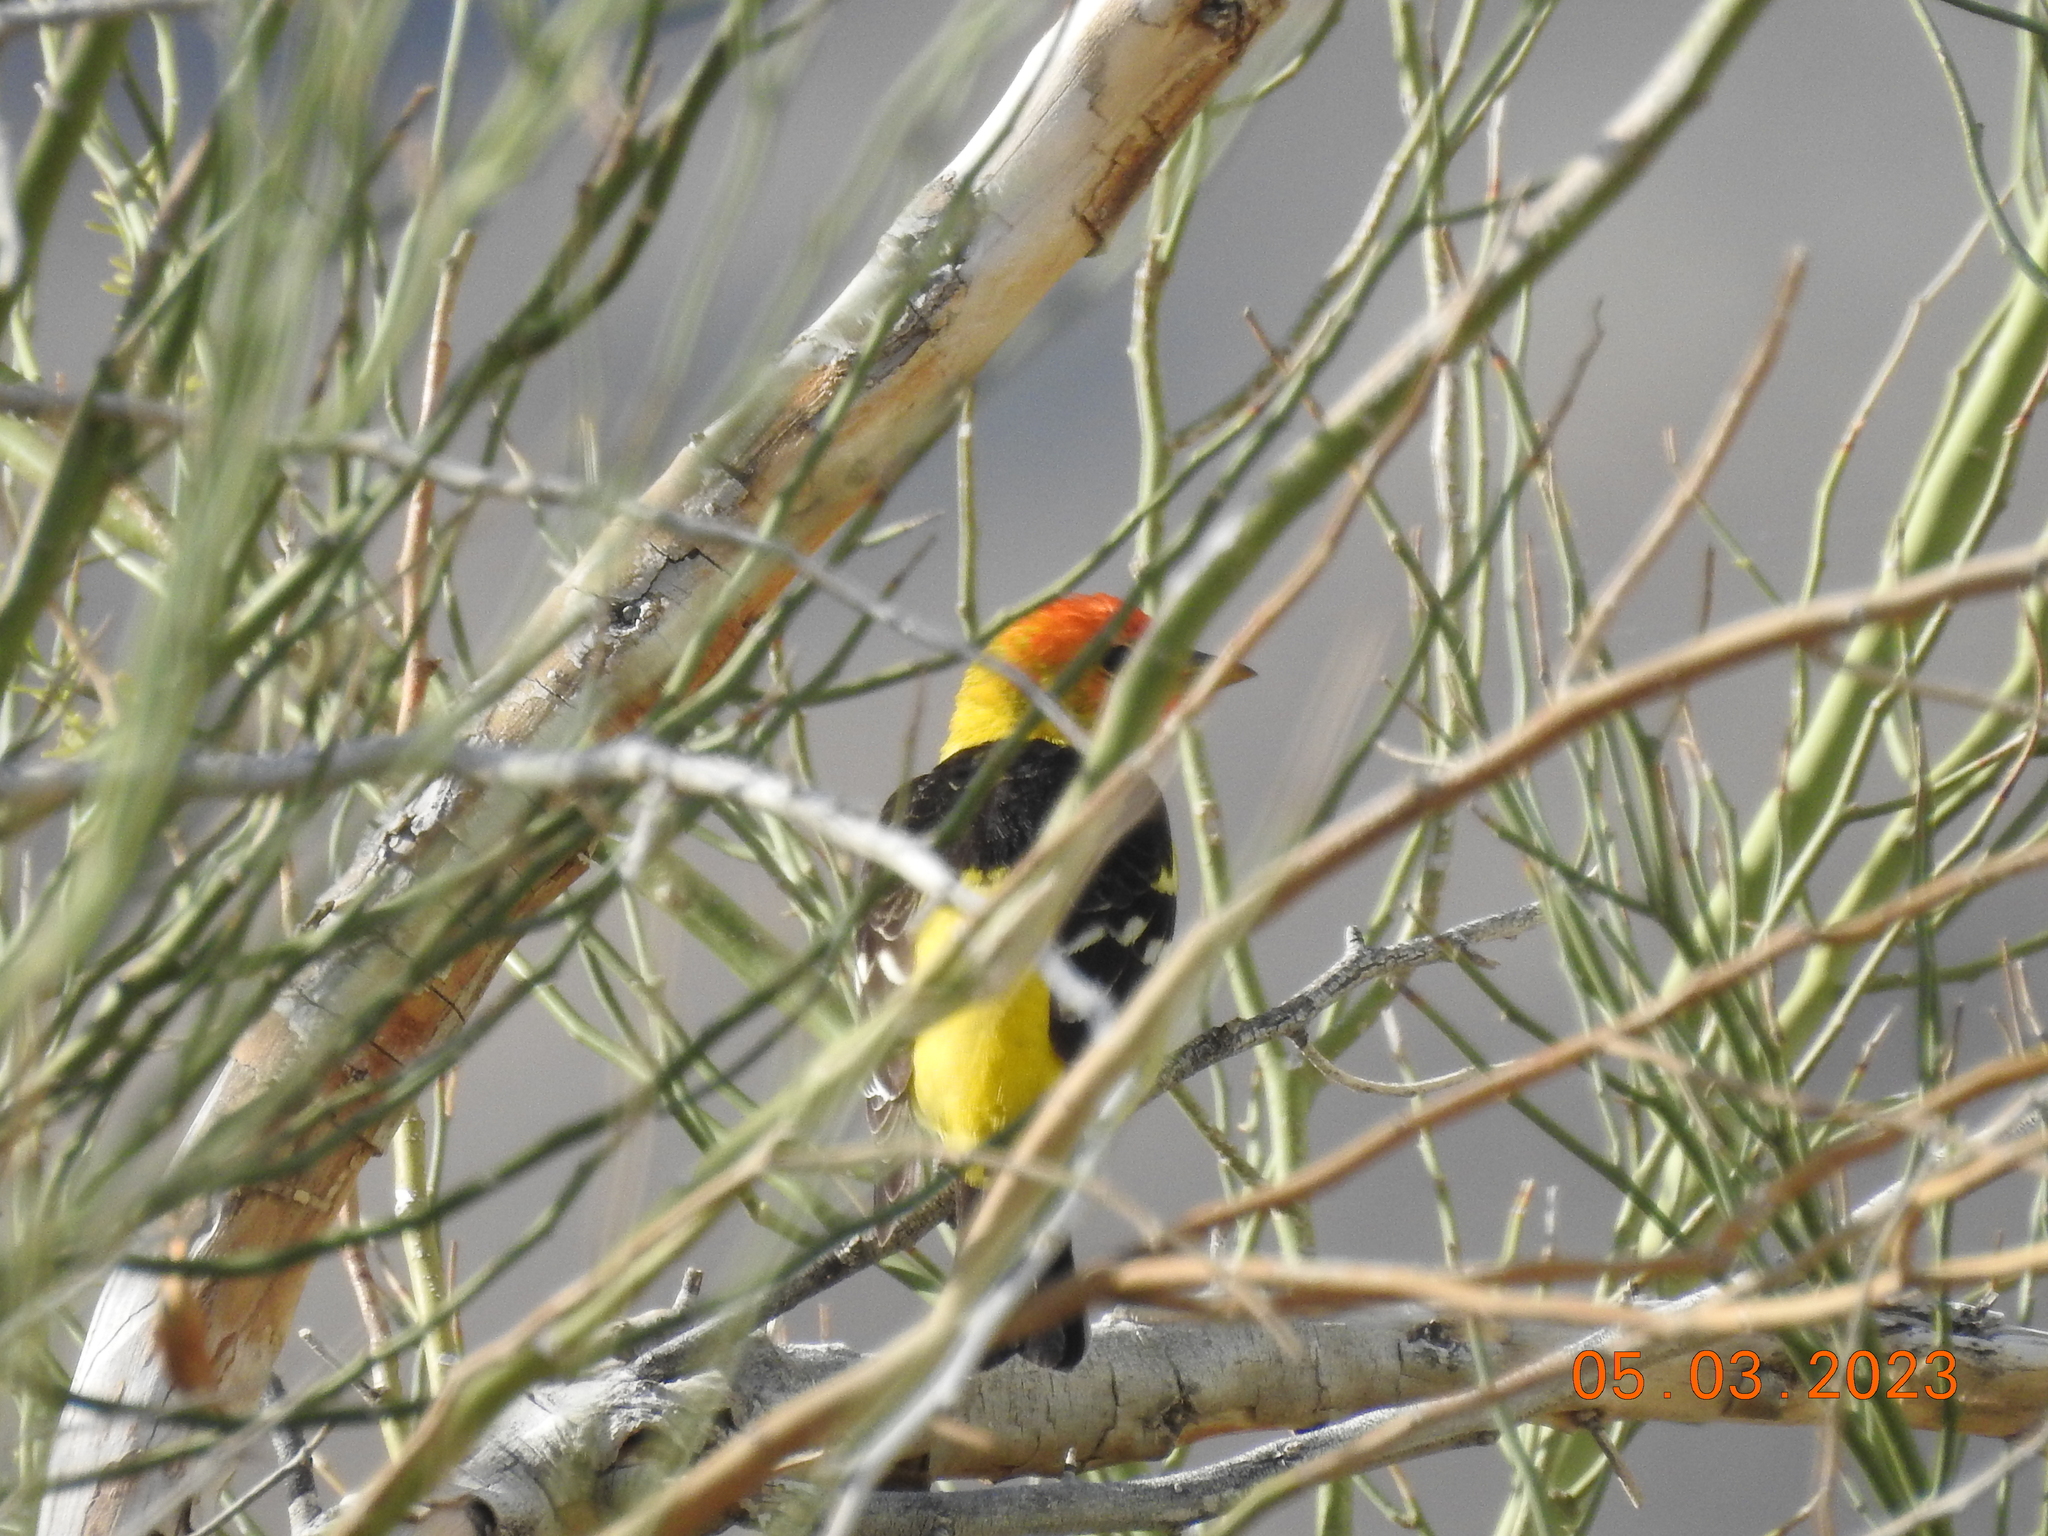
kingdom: Animalia
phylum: Chordata
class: Aves
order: Passeriformes
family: Cardinalidae
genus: Piranga
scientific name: Piranga ludoviciana
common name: Western tanager
